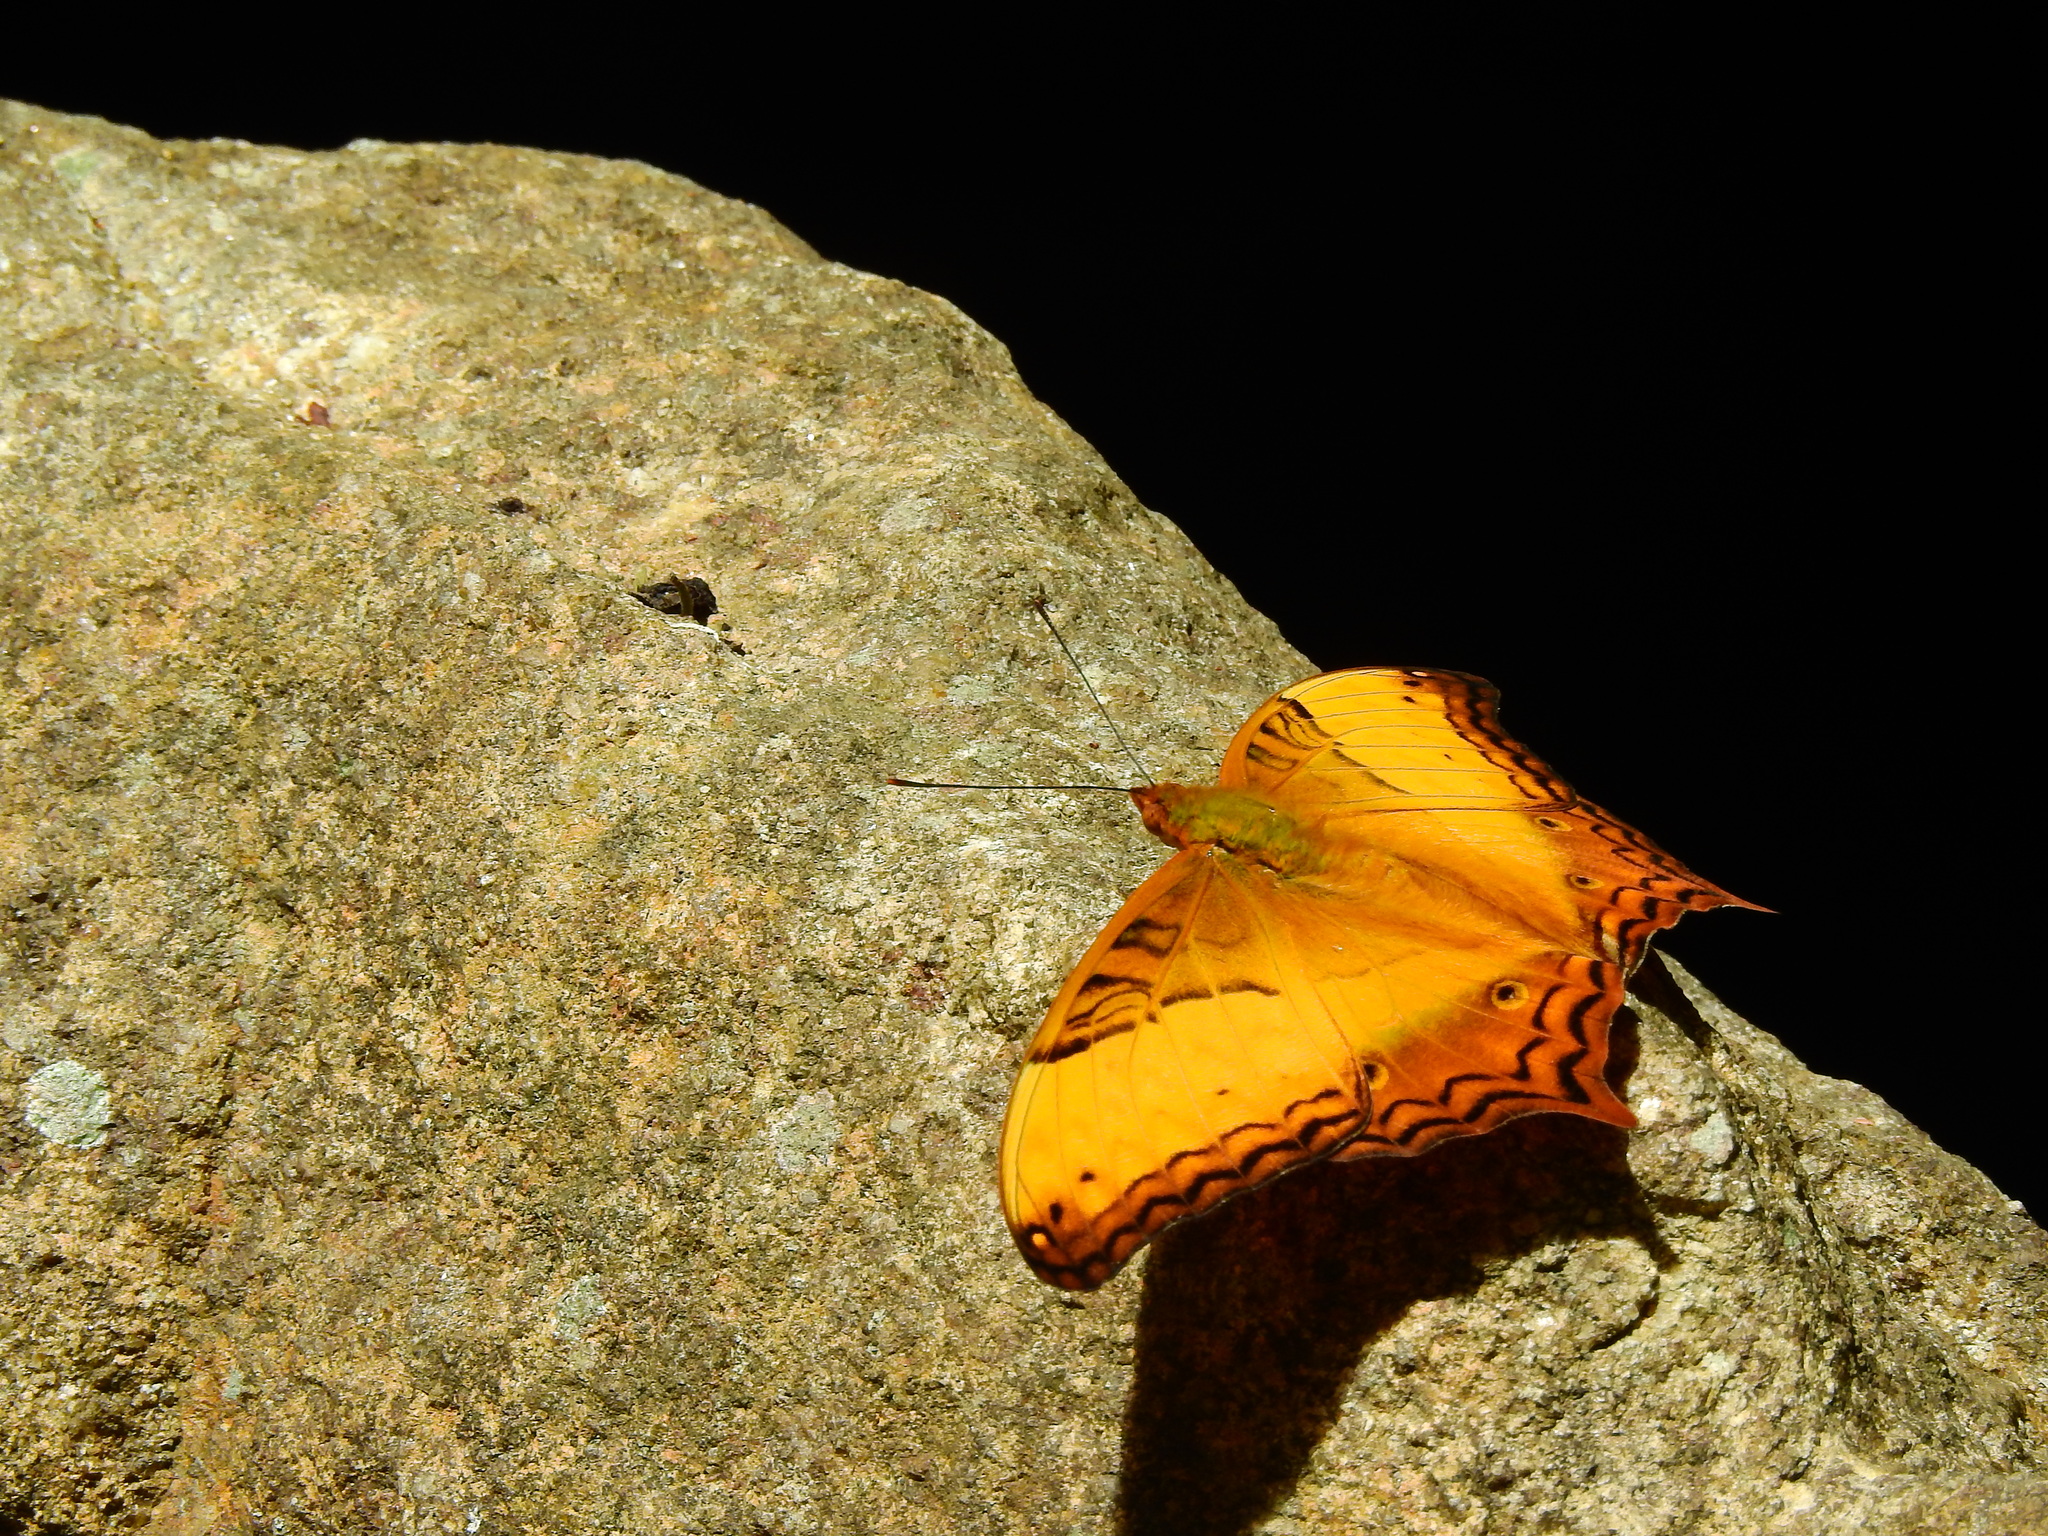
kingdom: Animalia
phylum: Arthropoda
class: Insecta
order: Lepidoptera
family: Nymphalidae
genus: Vindula
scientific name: Vindula erota
